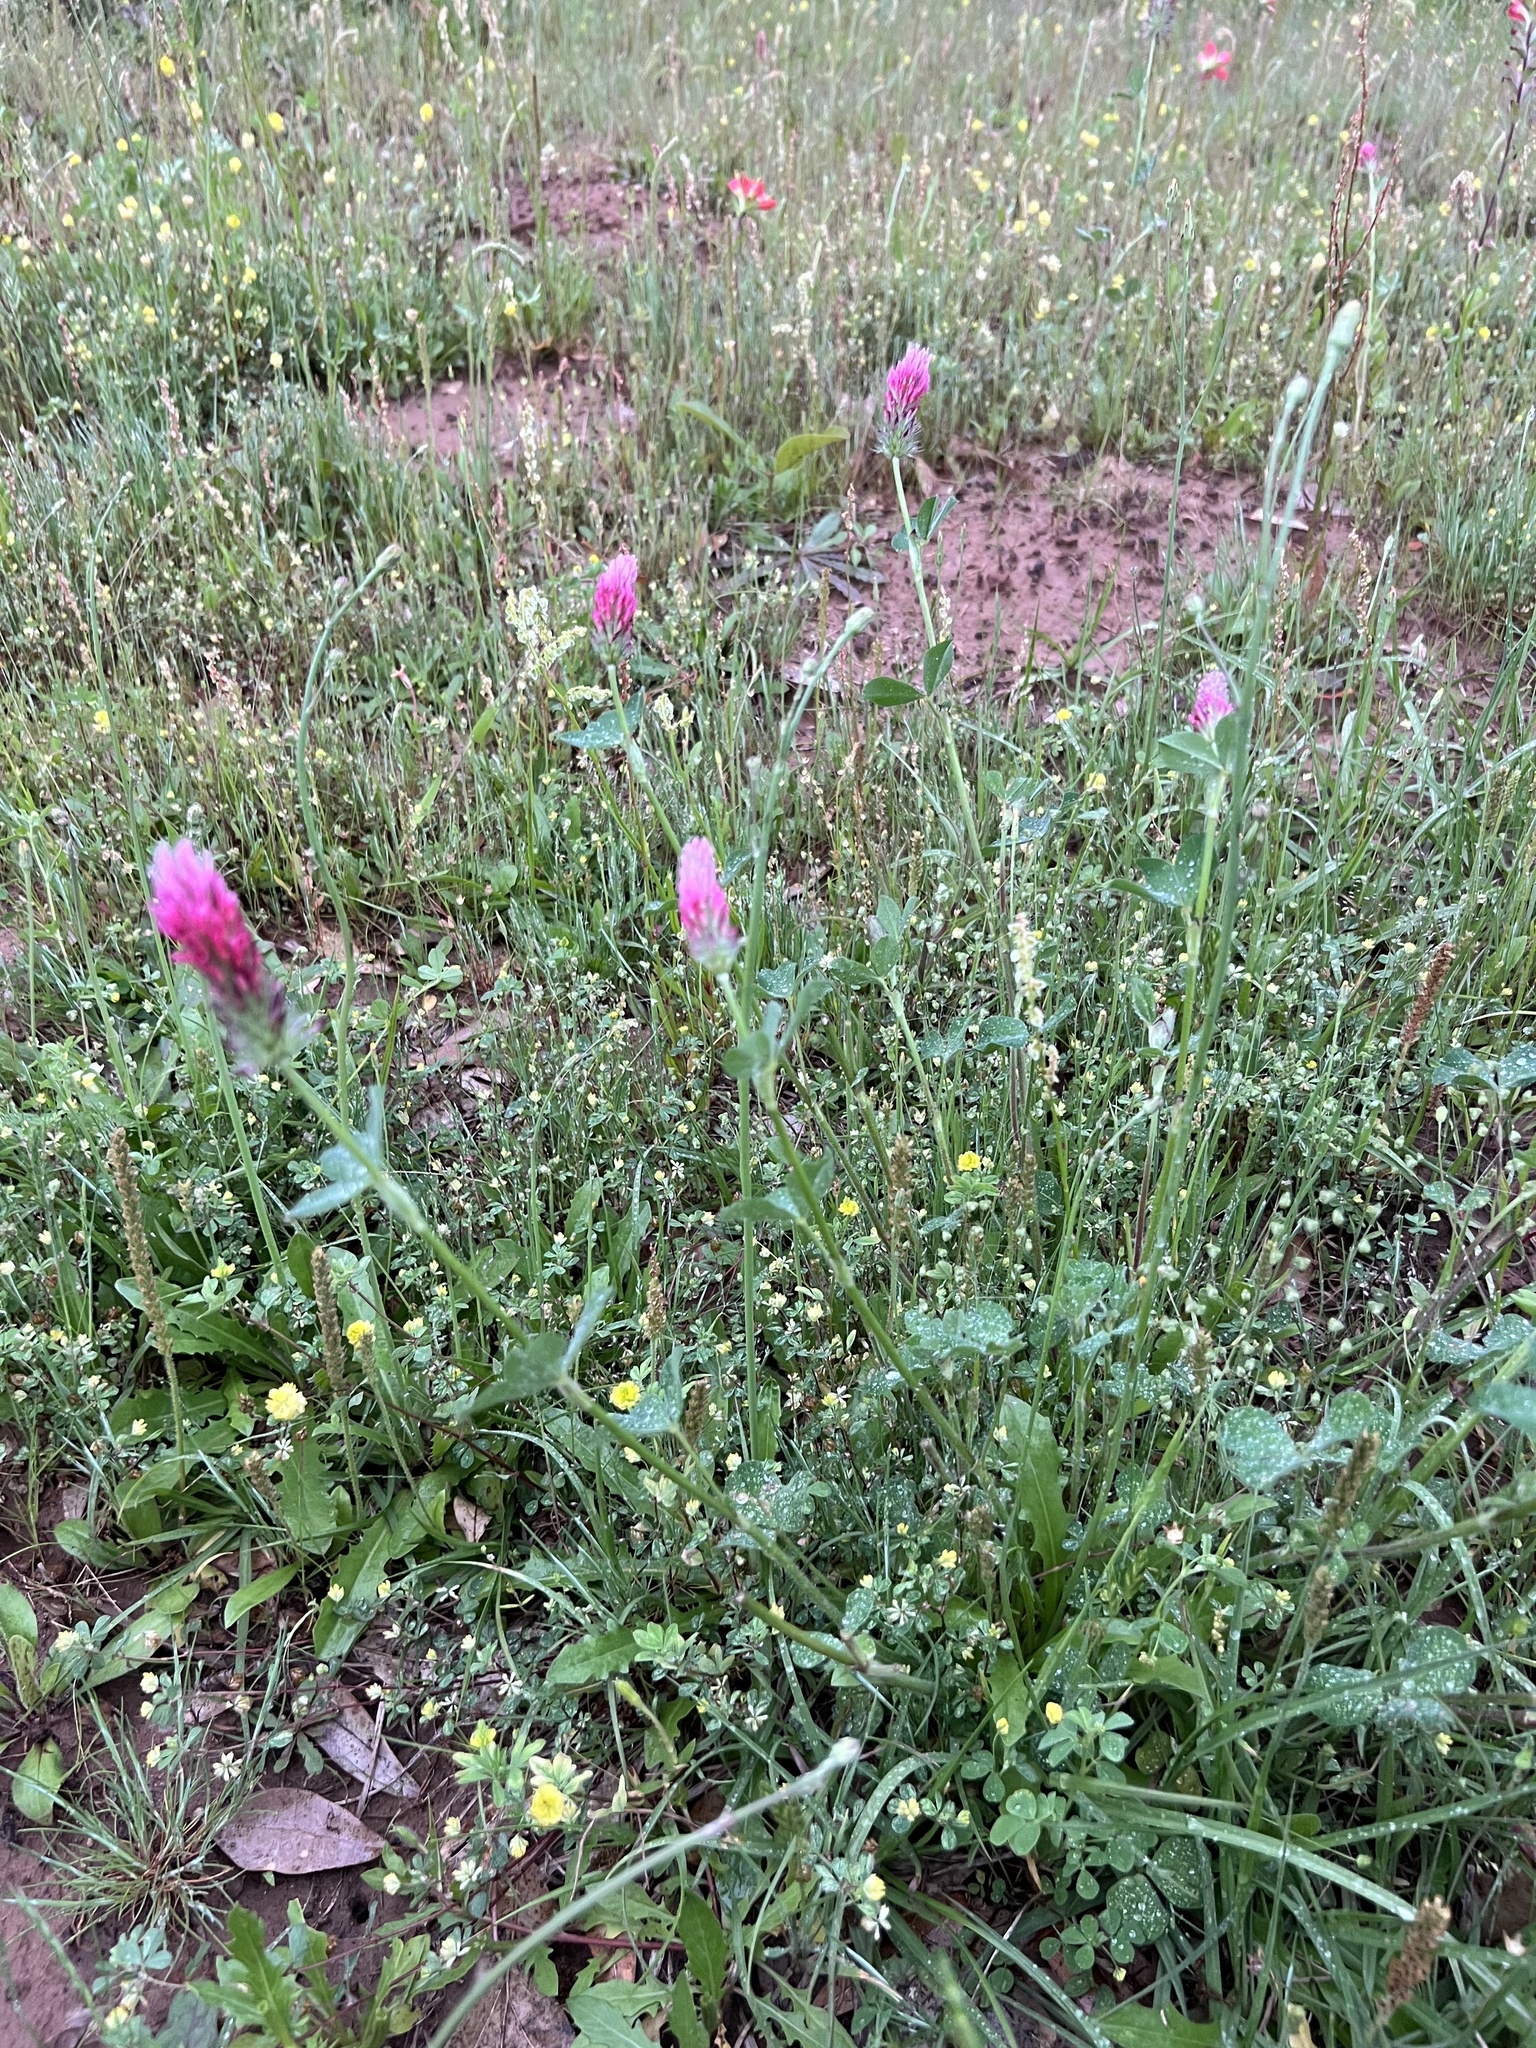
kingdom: Plantae
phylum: Tracheophyta
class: Magnoliopsida
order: Fabales
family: Fabaceae
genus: Trifolium
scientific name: Trifolium incarnatum
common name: Crimson clover
